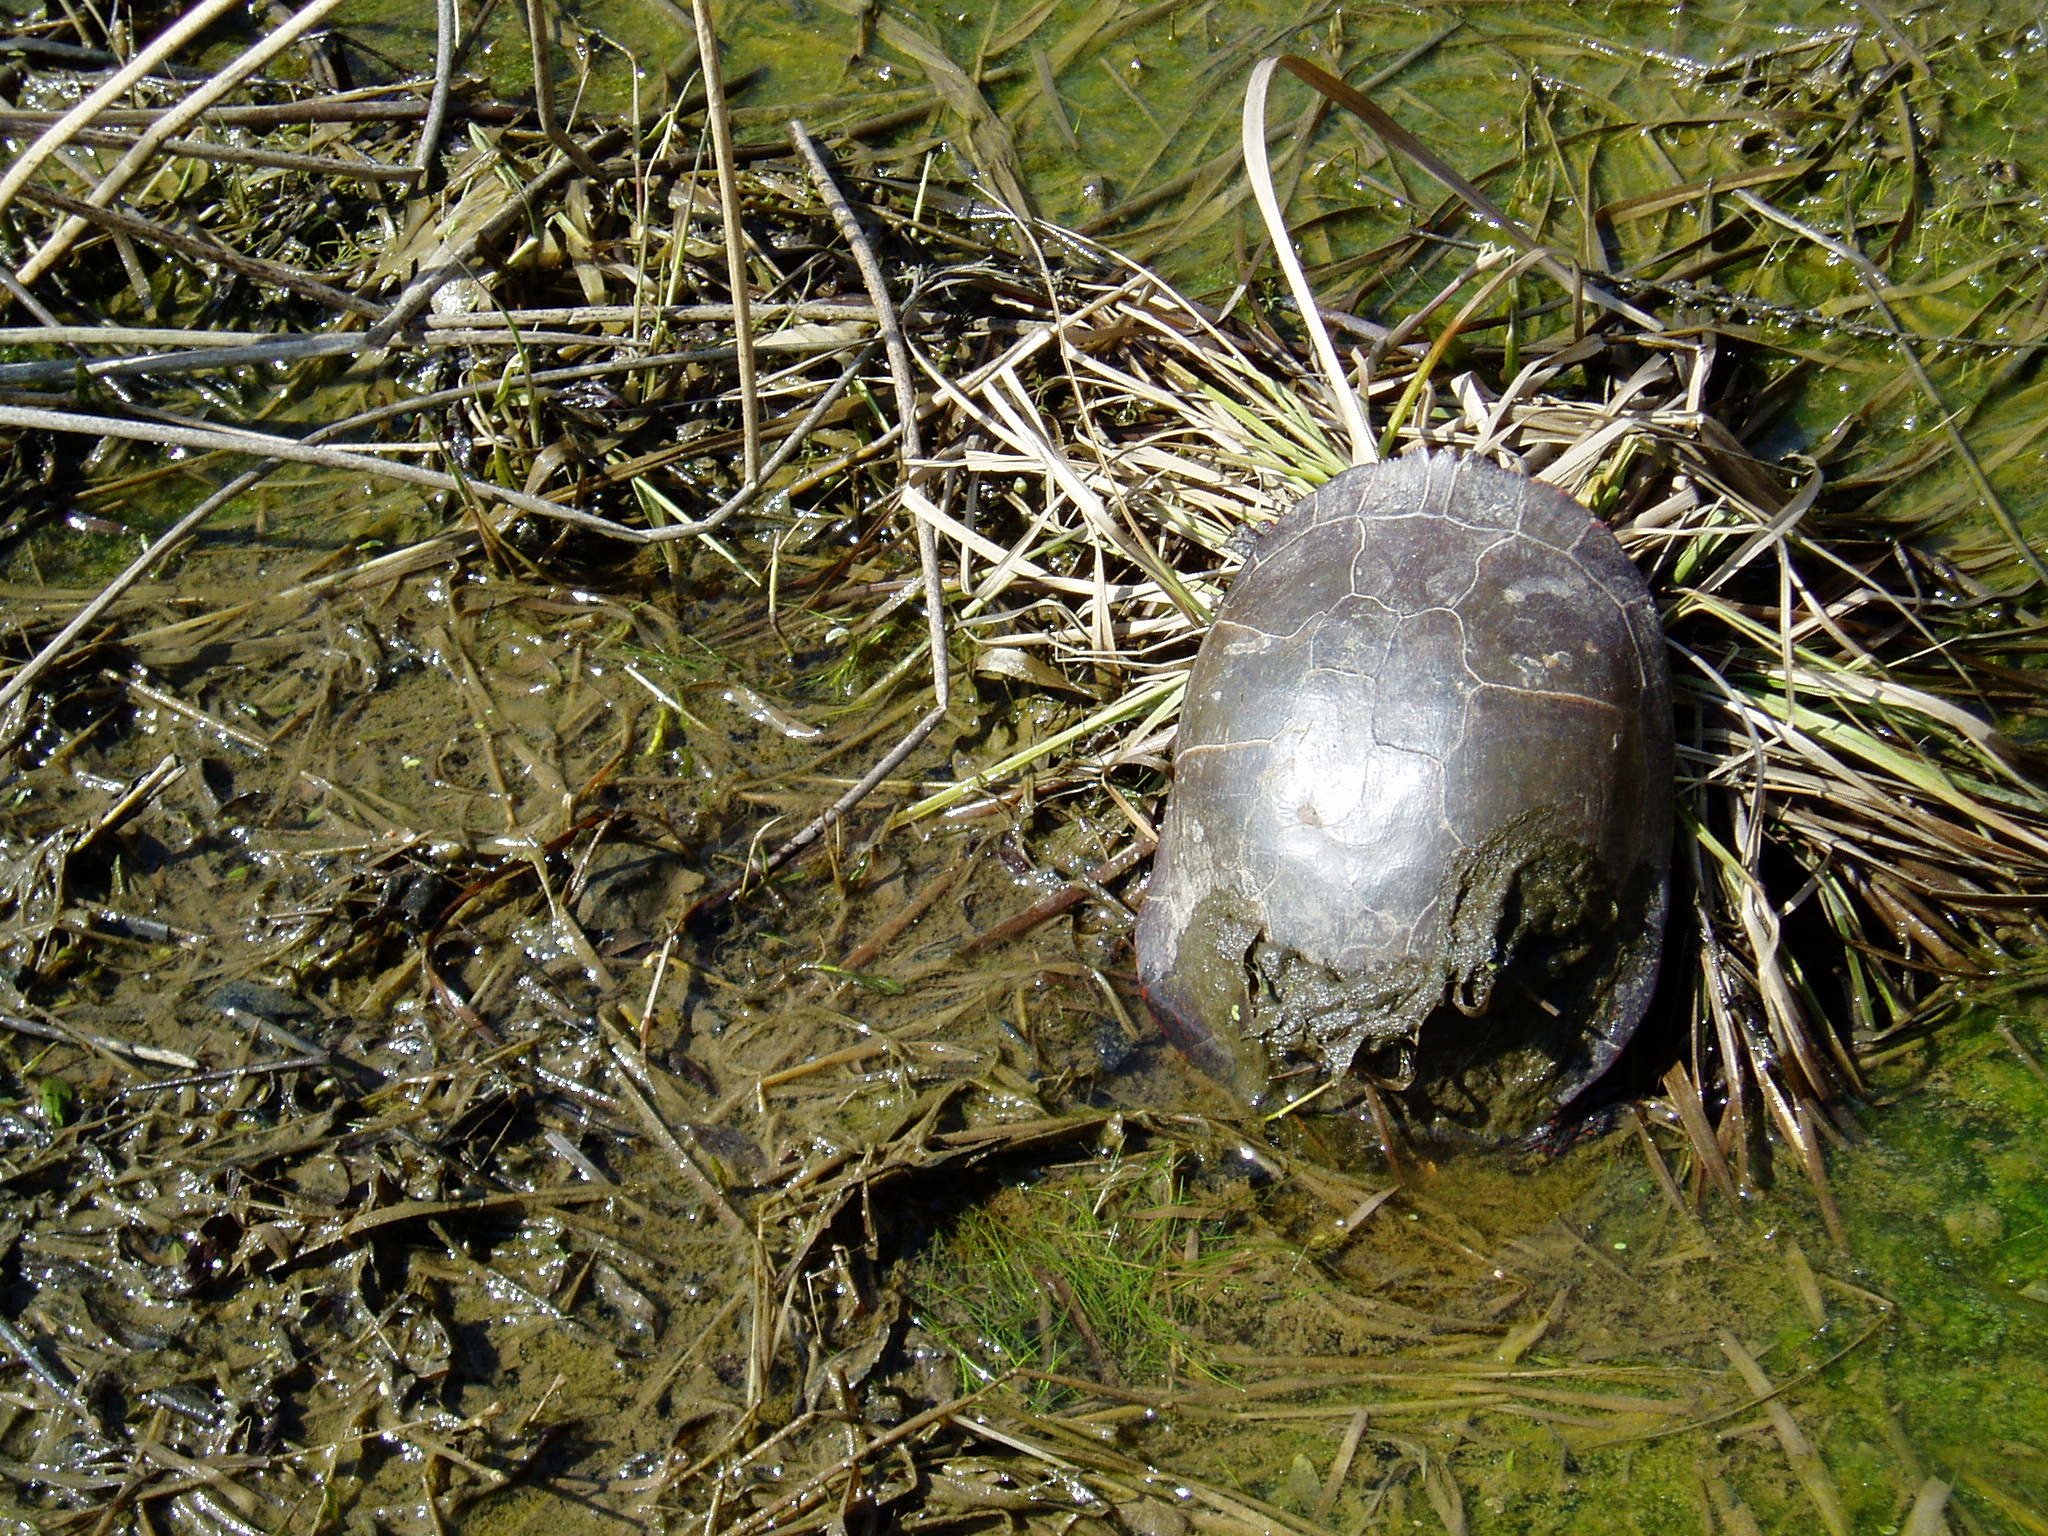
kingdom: Animalia
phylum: Chordata
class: Testudines
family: Emydidae
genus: Chrysemys
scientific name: Chrysemys picta
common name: Painted turtle
